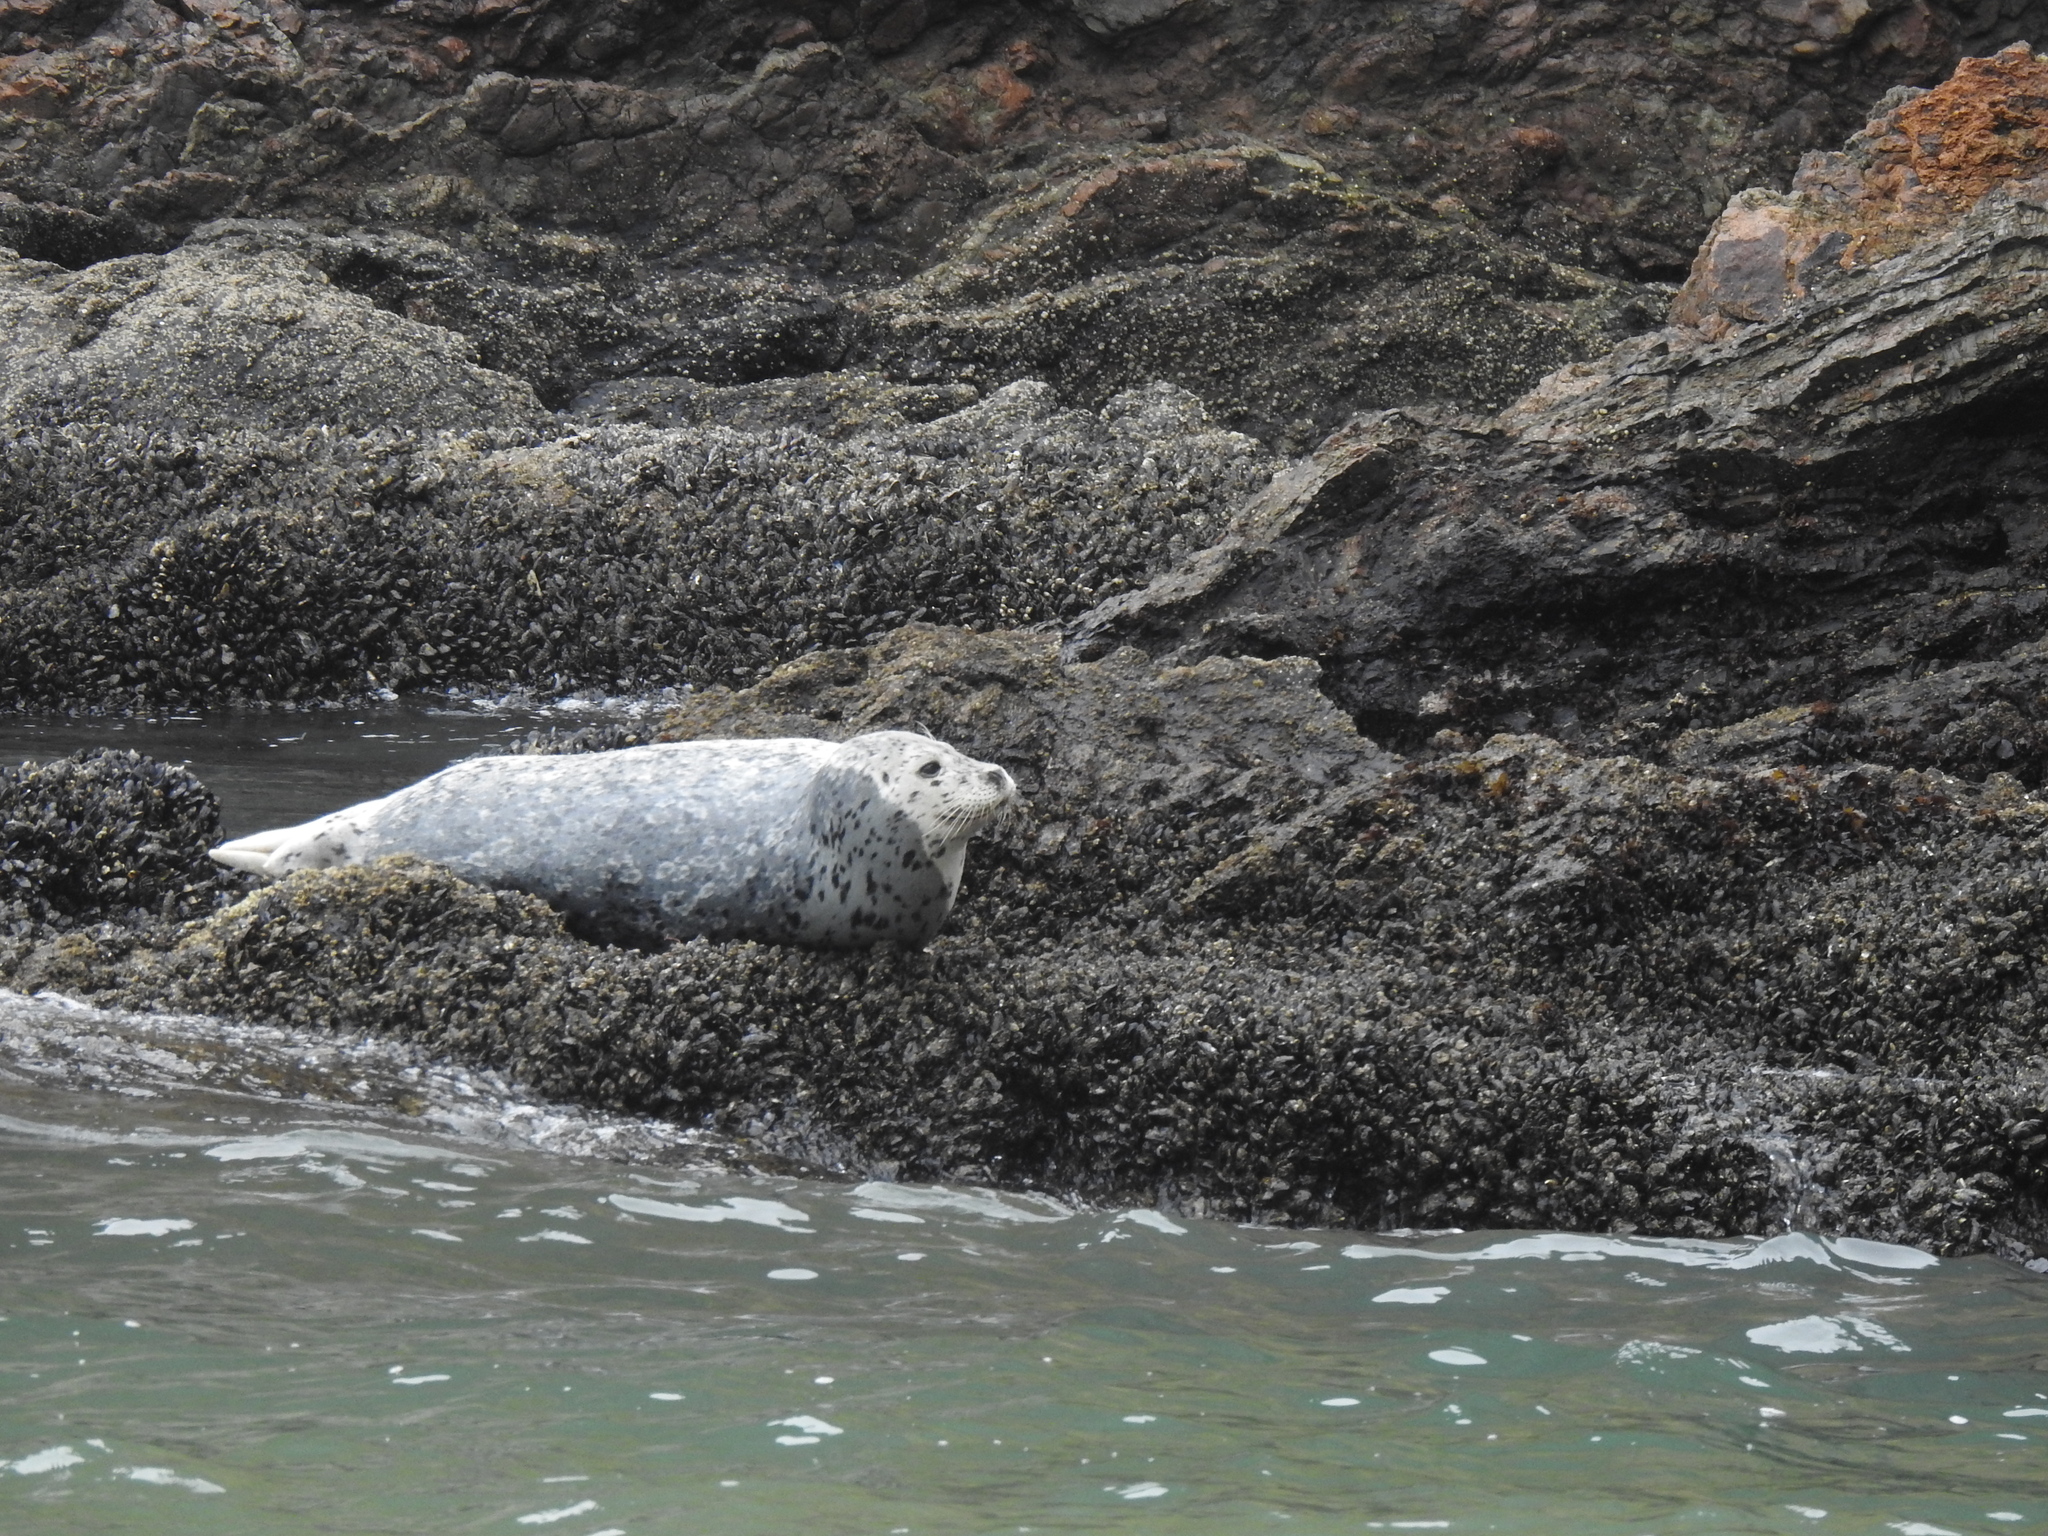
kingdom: Animalia
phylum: Chordata
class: Mammalia
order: Carnivora
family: Phocidae
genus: Phoca
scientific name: Phoca vitulina
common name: Harbor seal
